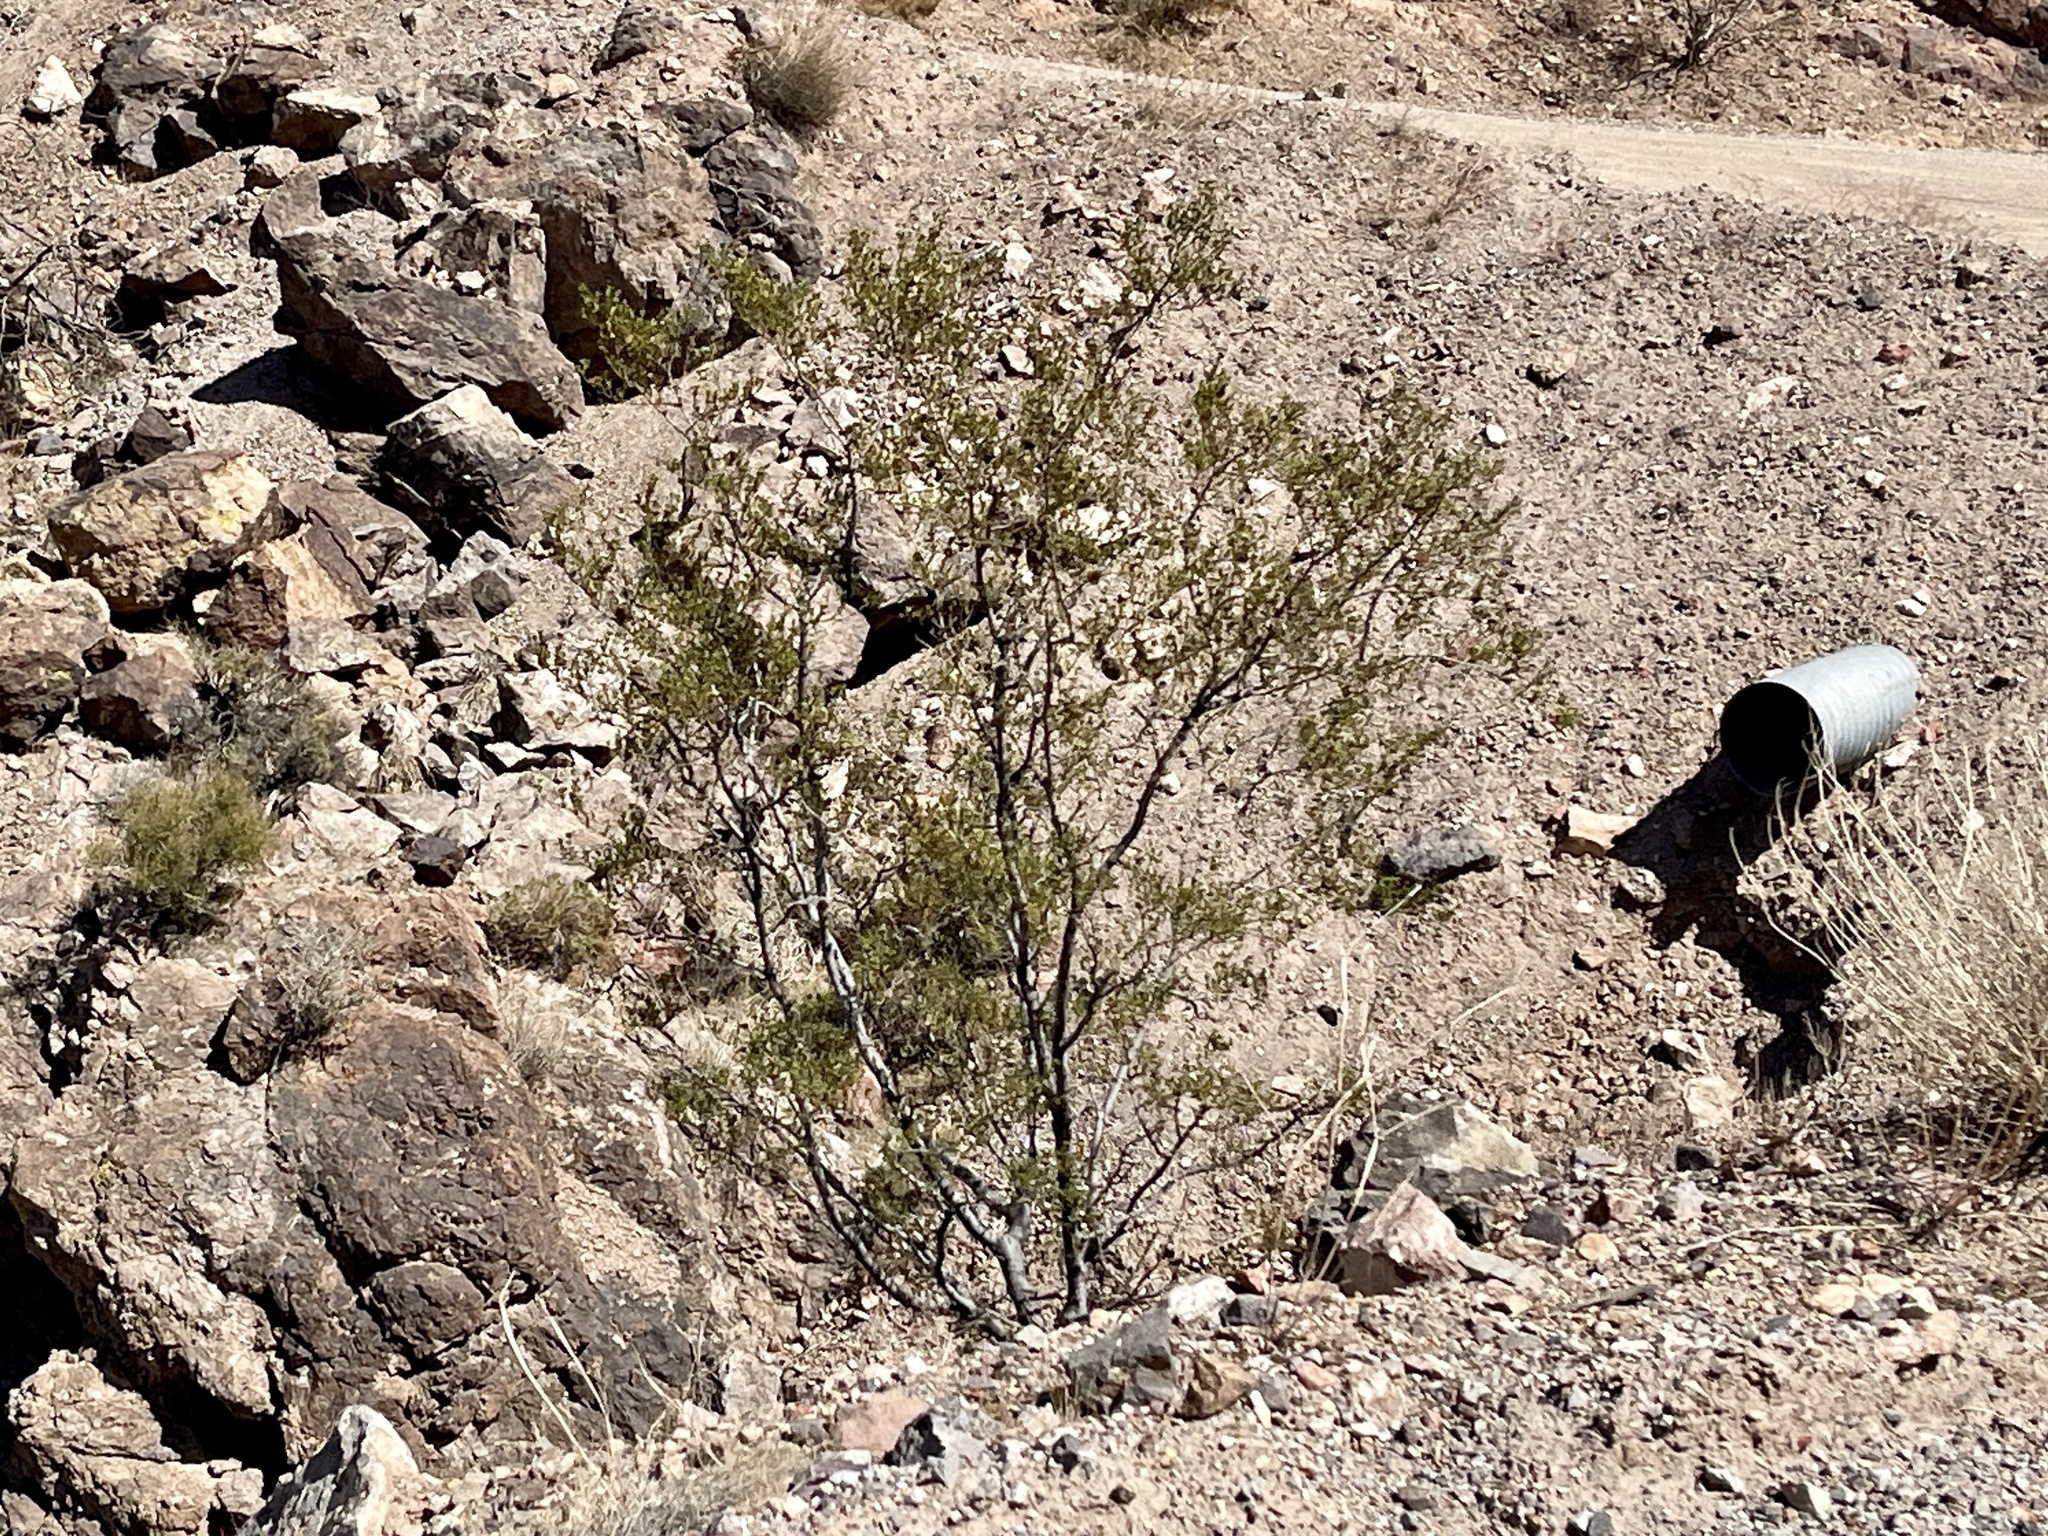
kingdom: Plantae
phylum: Tracheophyta
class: Magnoliopsida
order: Zygophyllales
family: Zygophyllaceae
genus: Larrea
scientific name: Larrea tridentata
